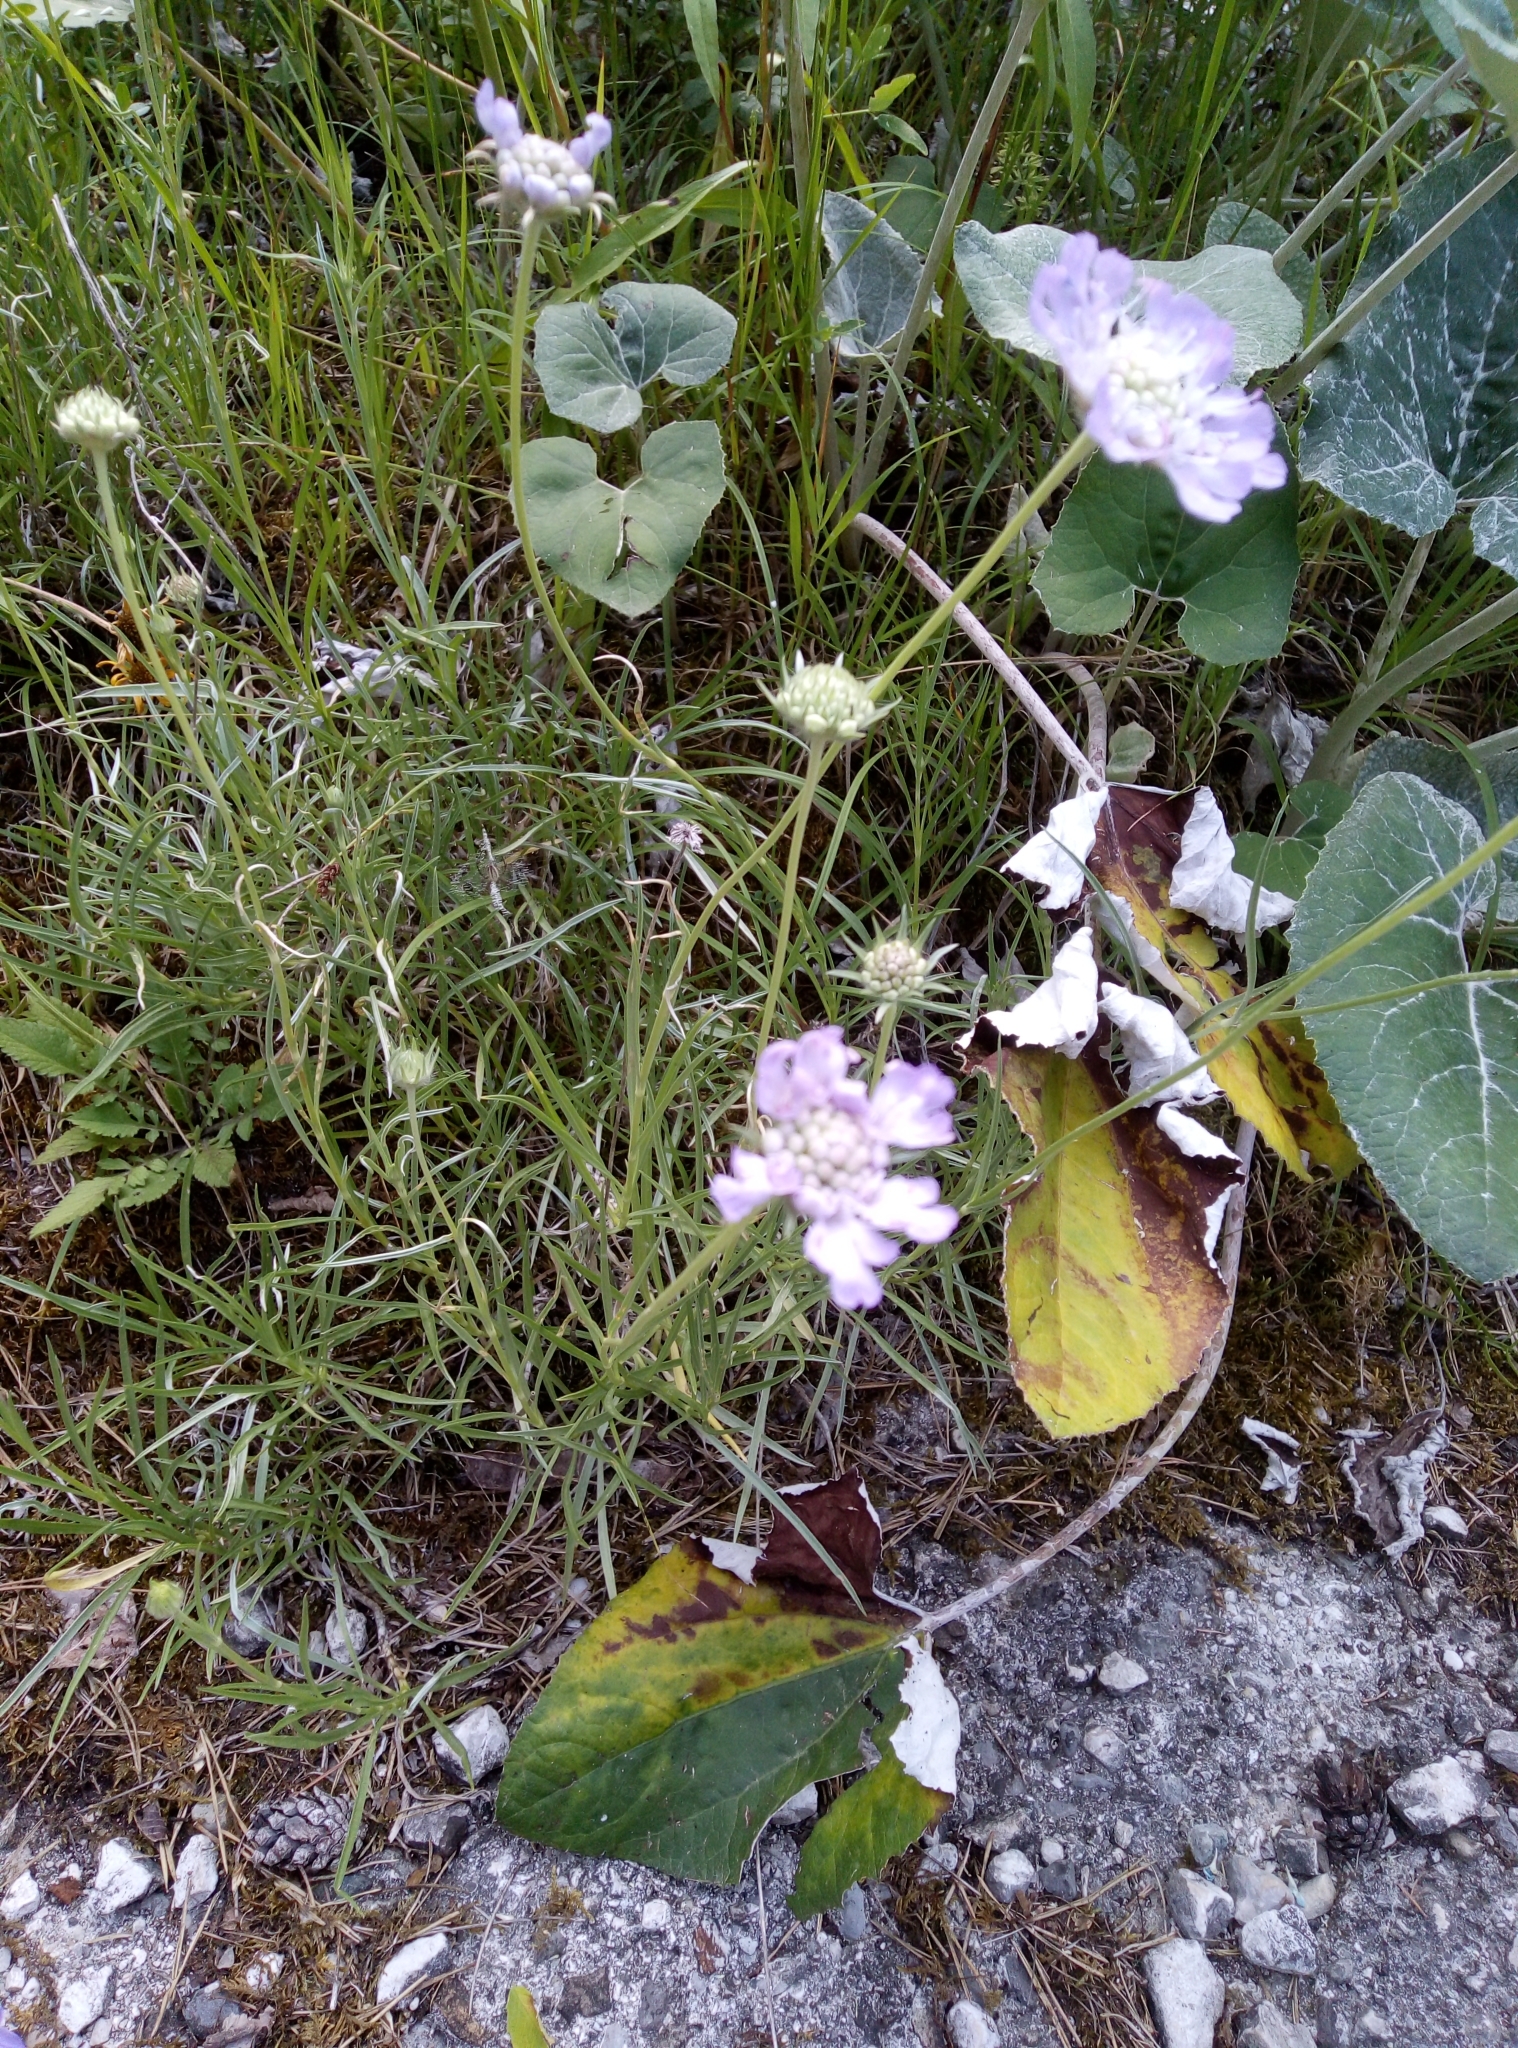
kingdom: Plantae
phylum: Tracheophyta
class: Magnoliopsida
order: Dipsacales
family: Caprifoliaceae
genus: Lomelosia
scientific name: Lomelosia graminifolia
